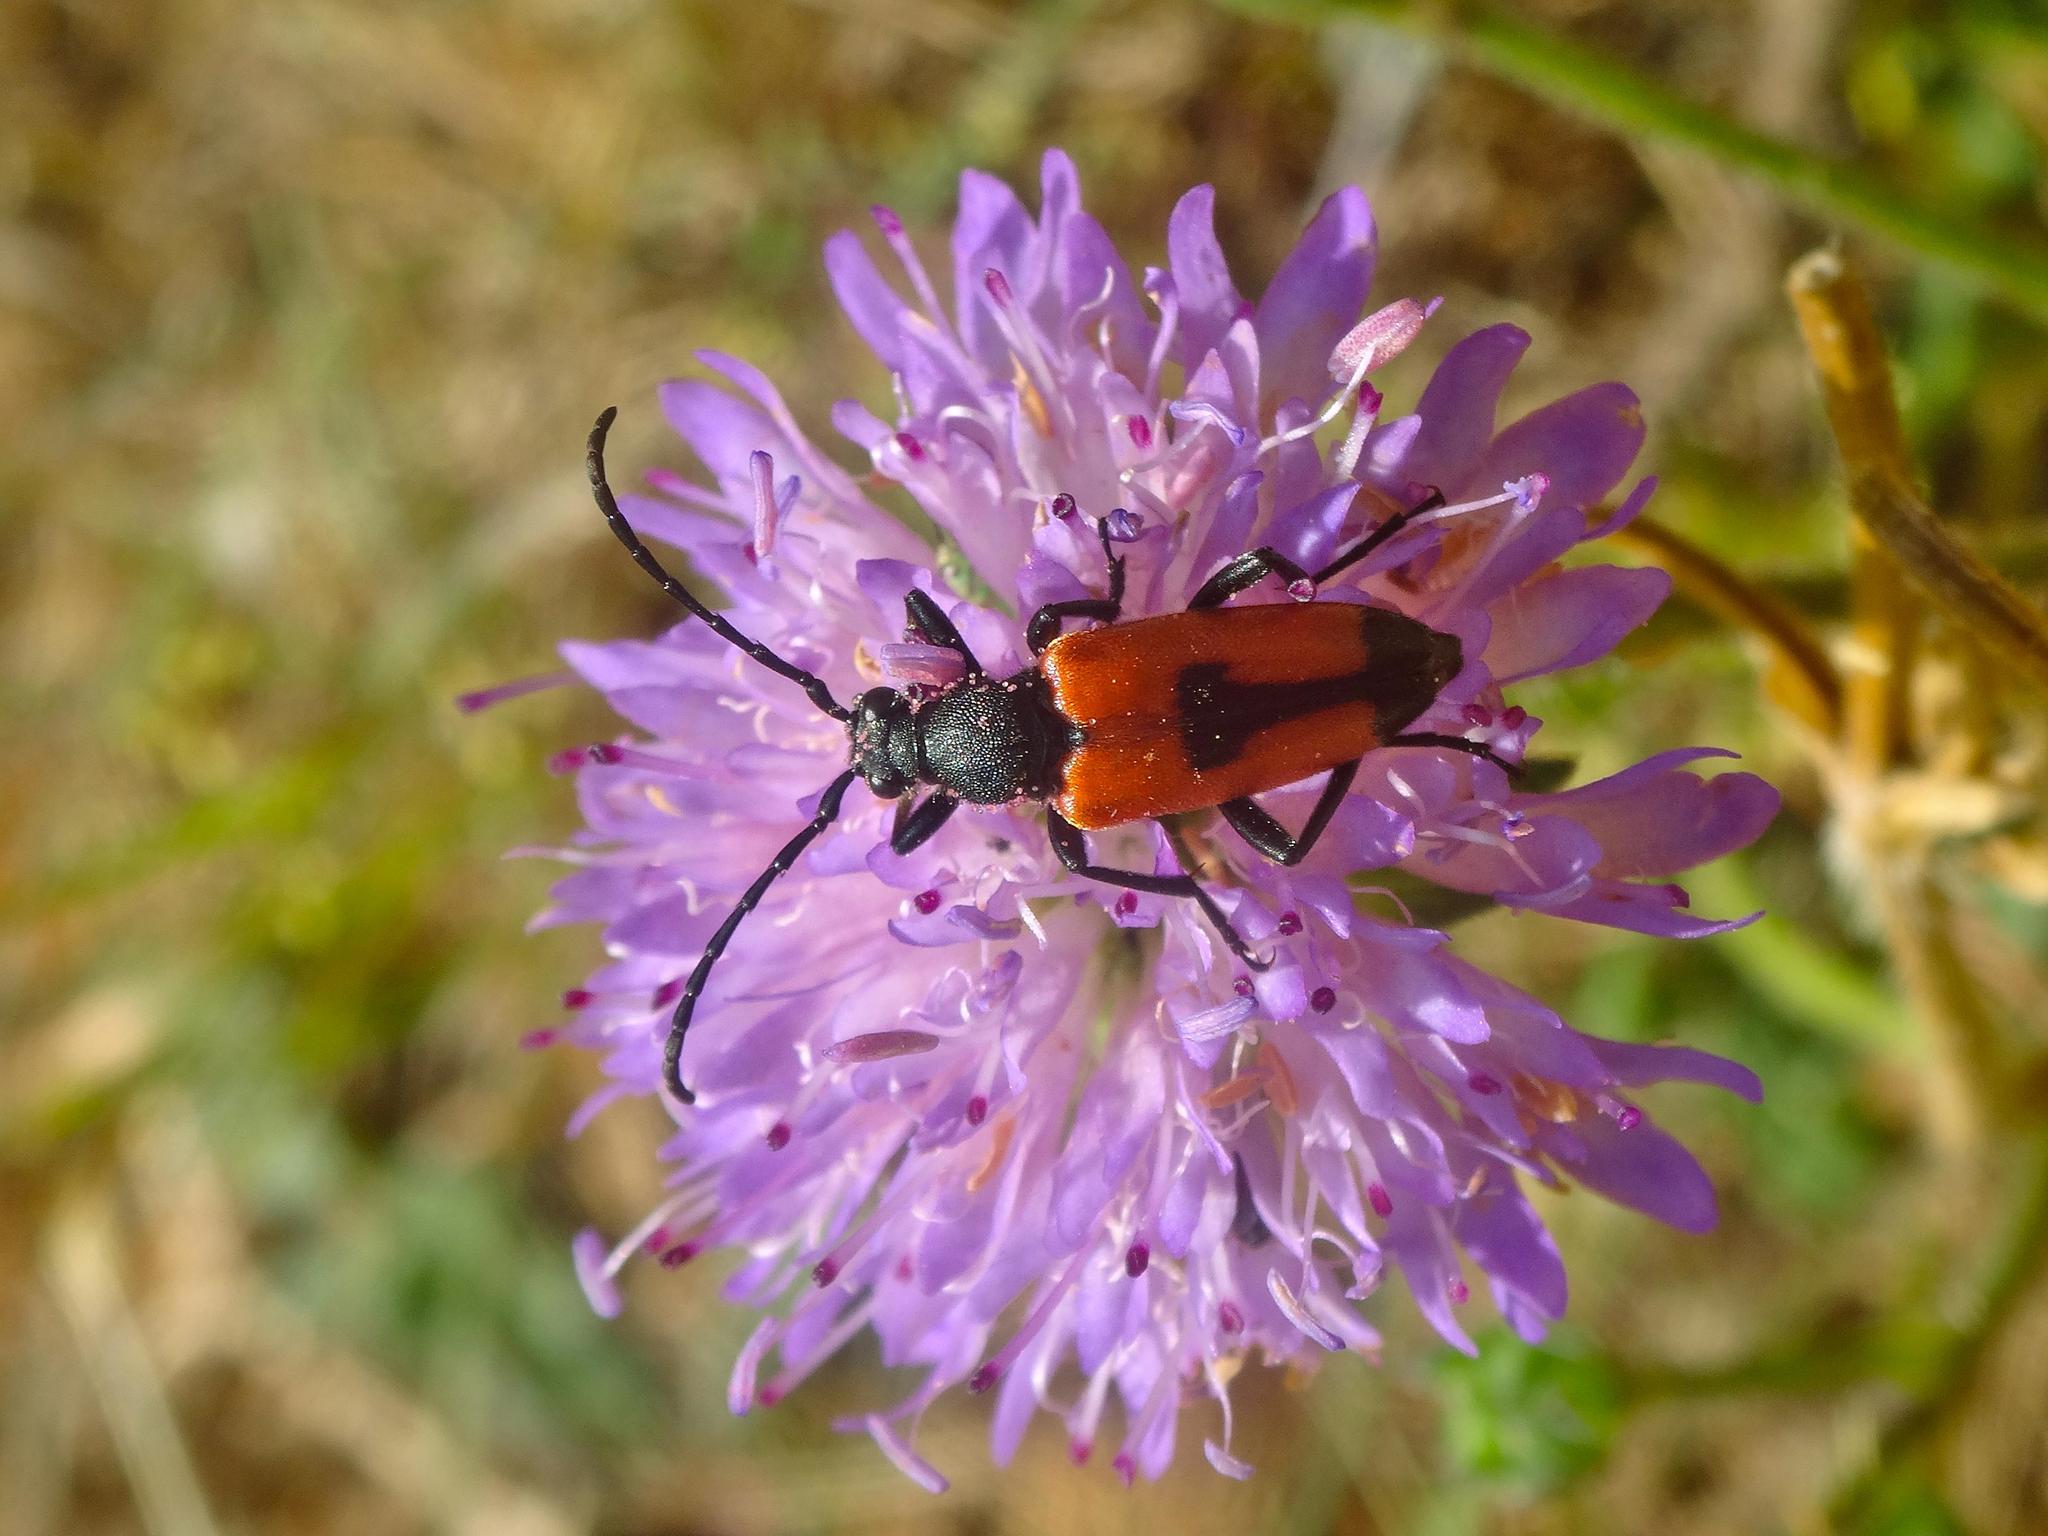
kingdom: Animalia
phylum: Arthropoda
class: Insecta
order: Coleoptera
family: Cerambycidae
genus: Stictoleptura
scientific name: Stictoleptura cordigera
